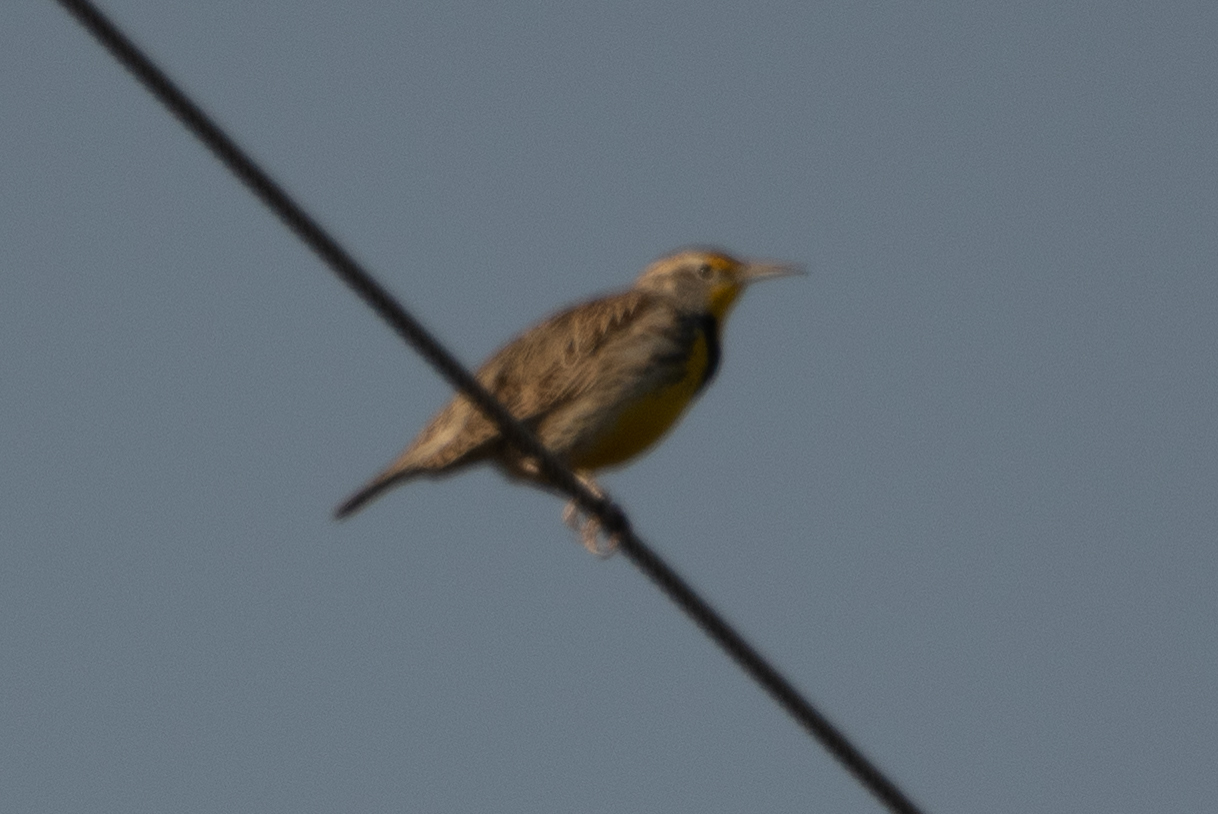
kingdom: Animalia
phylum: Chordata
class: Aves
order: Passeriformes
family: Icteridae
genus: Sturnella
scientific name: Sturnella neglecta
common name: Western meadowlark
